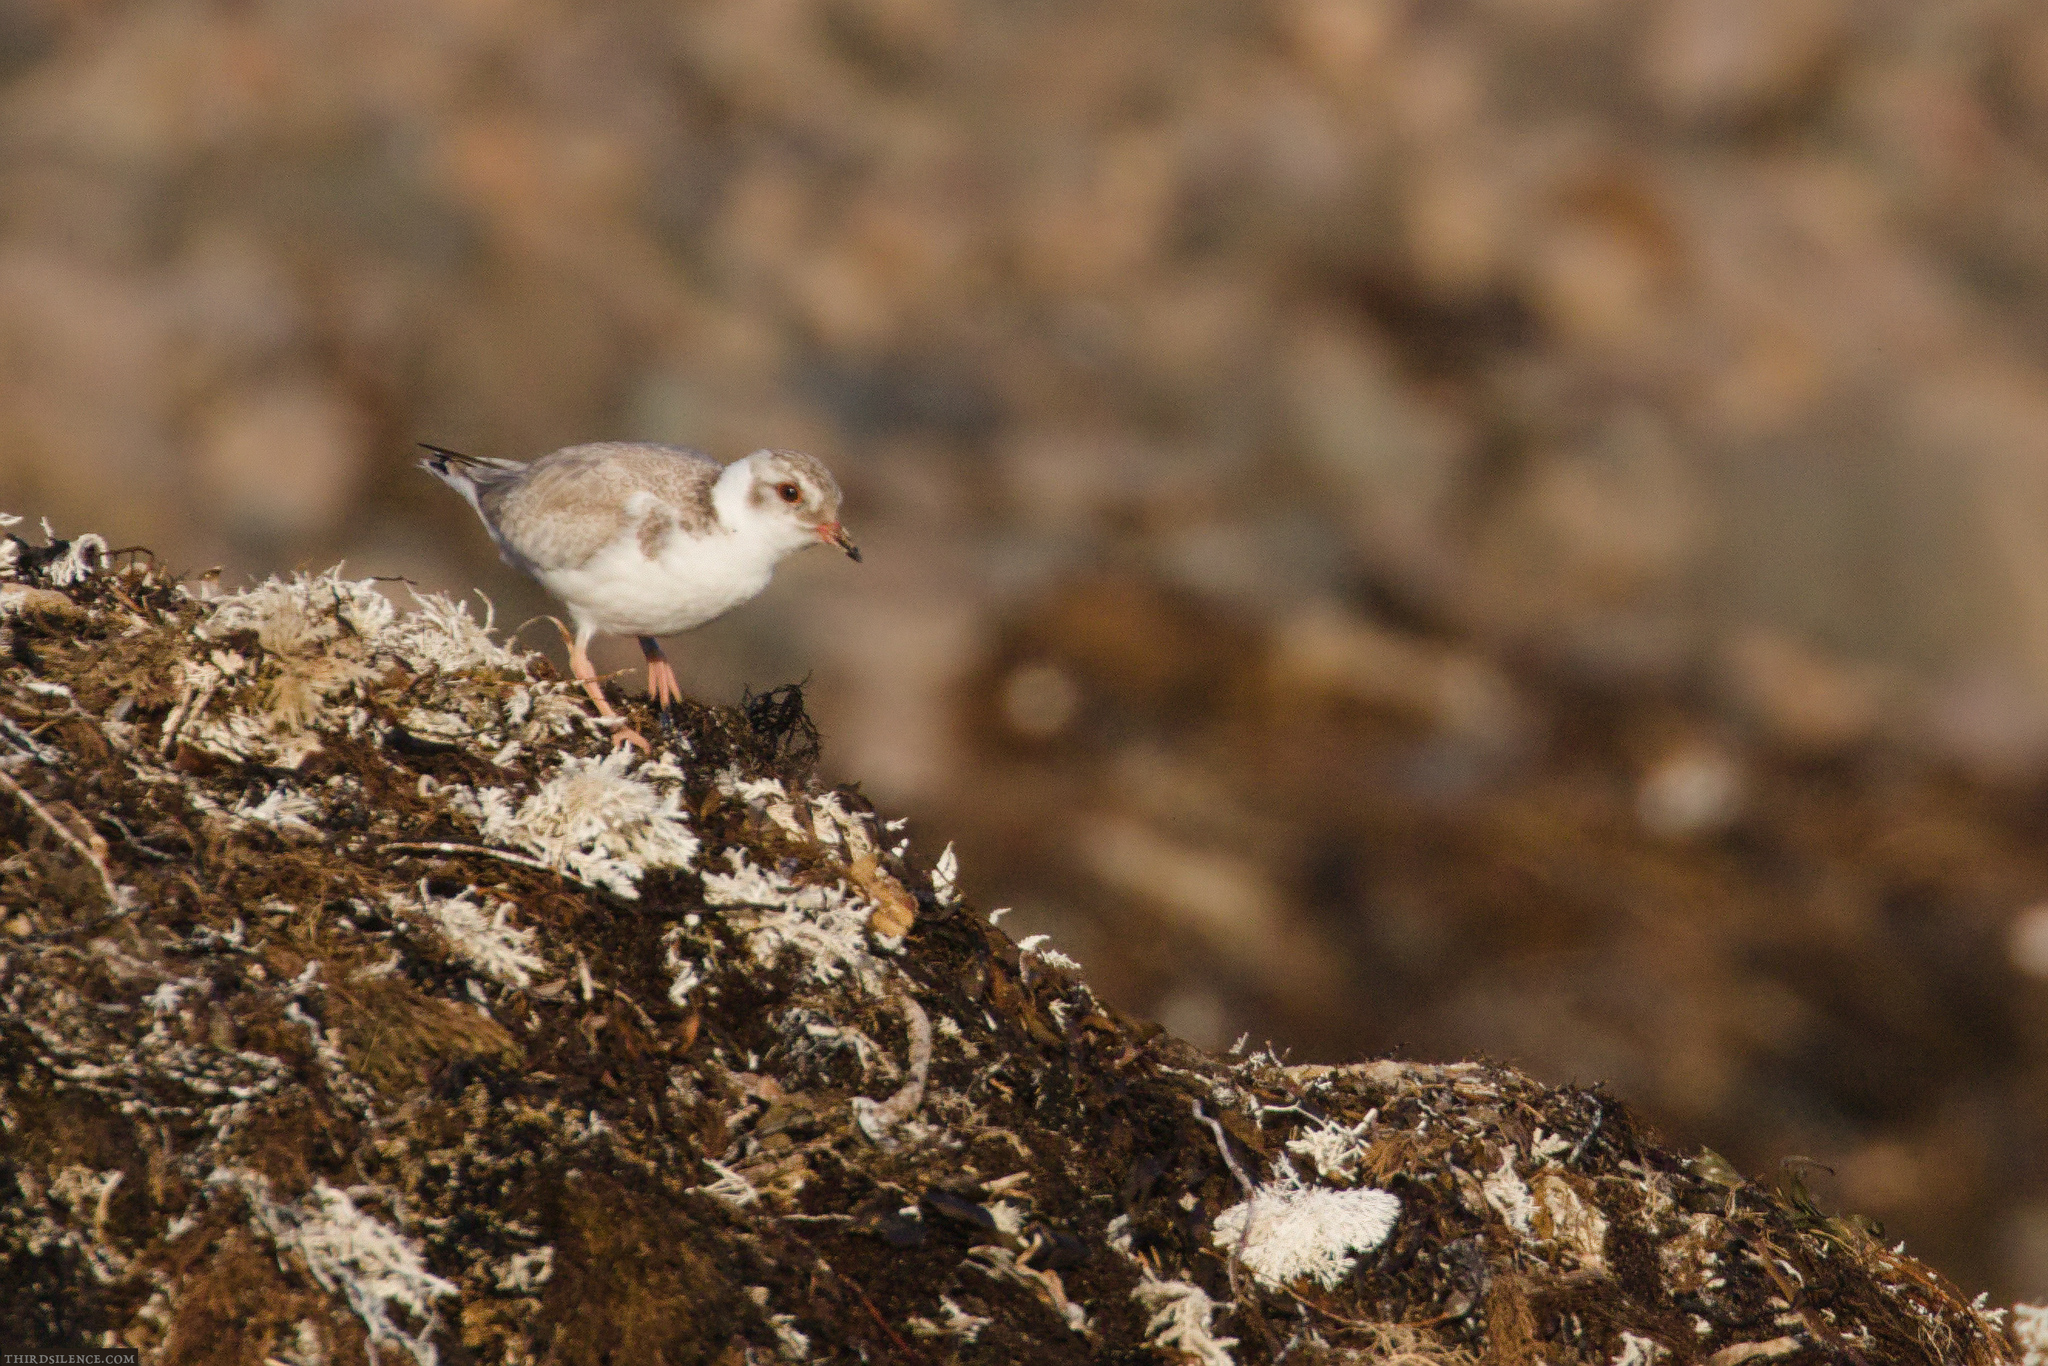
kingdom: Animalia
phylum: Chordata
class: Aves
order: Charadriiformes
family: Charadriidae
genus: Thinornis
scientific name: Thinornis cucullatus
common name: Hooded dotterel
